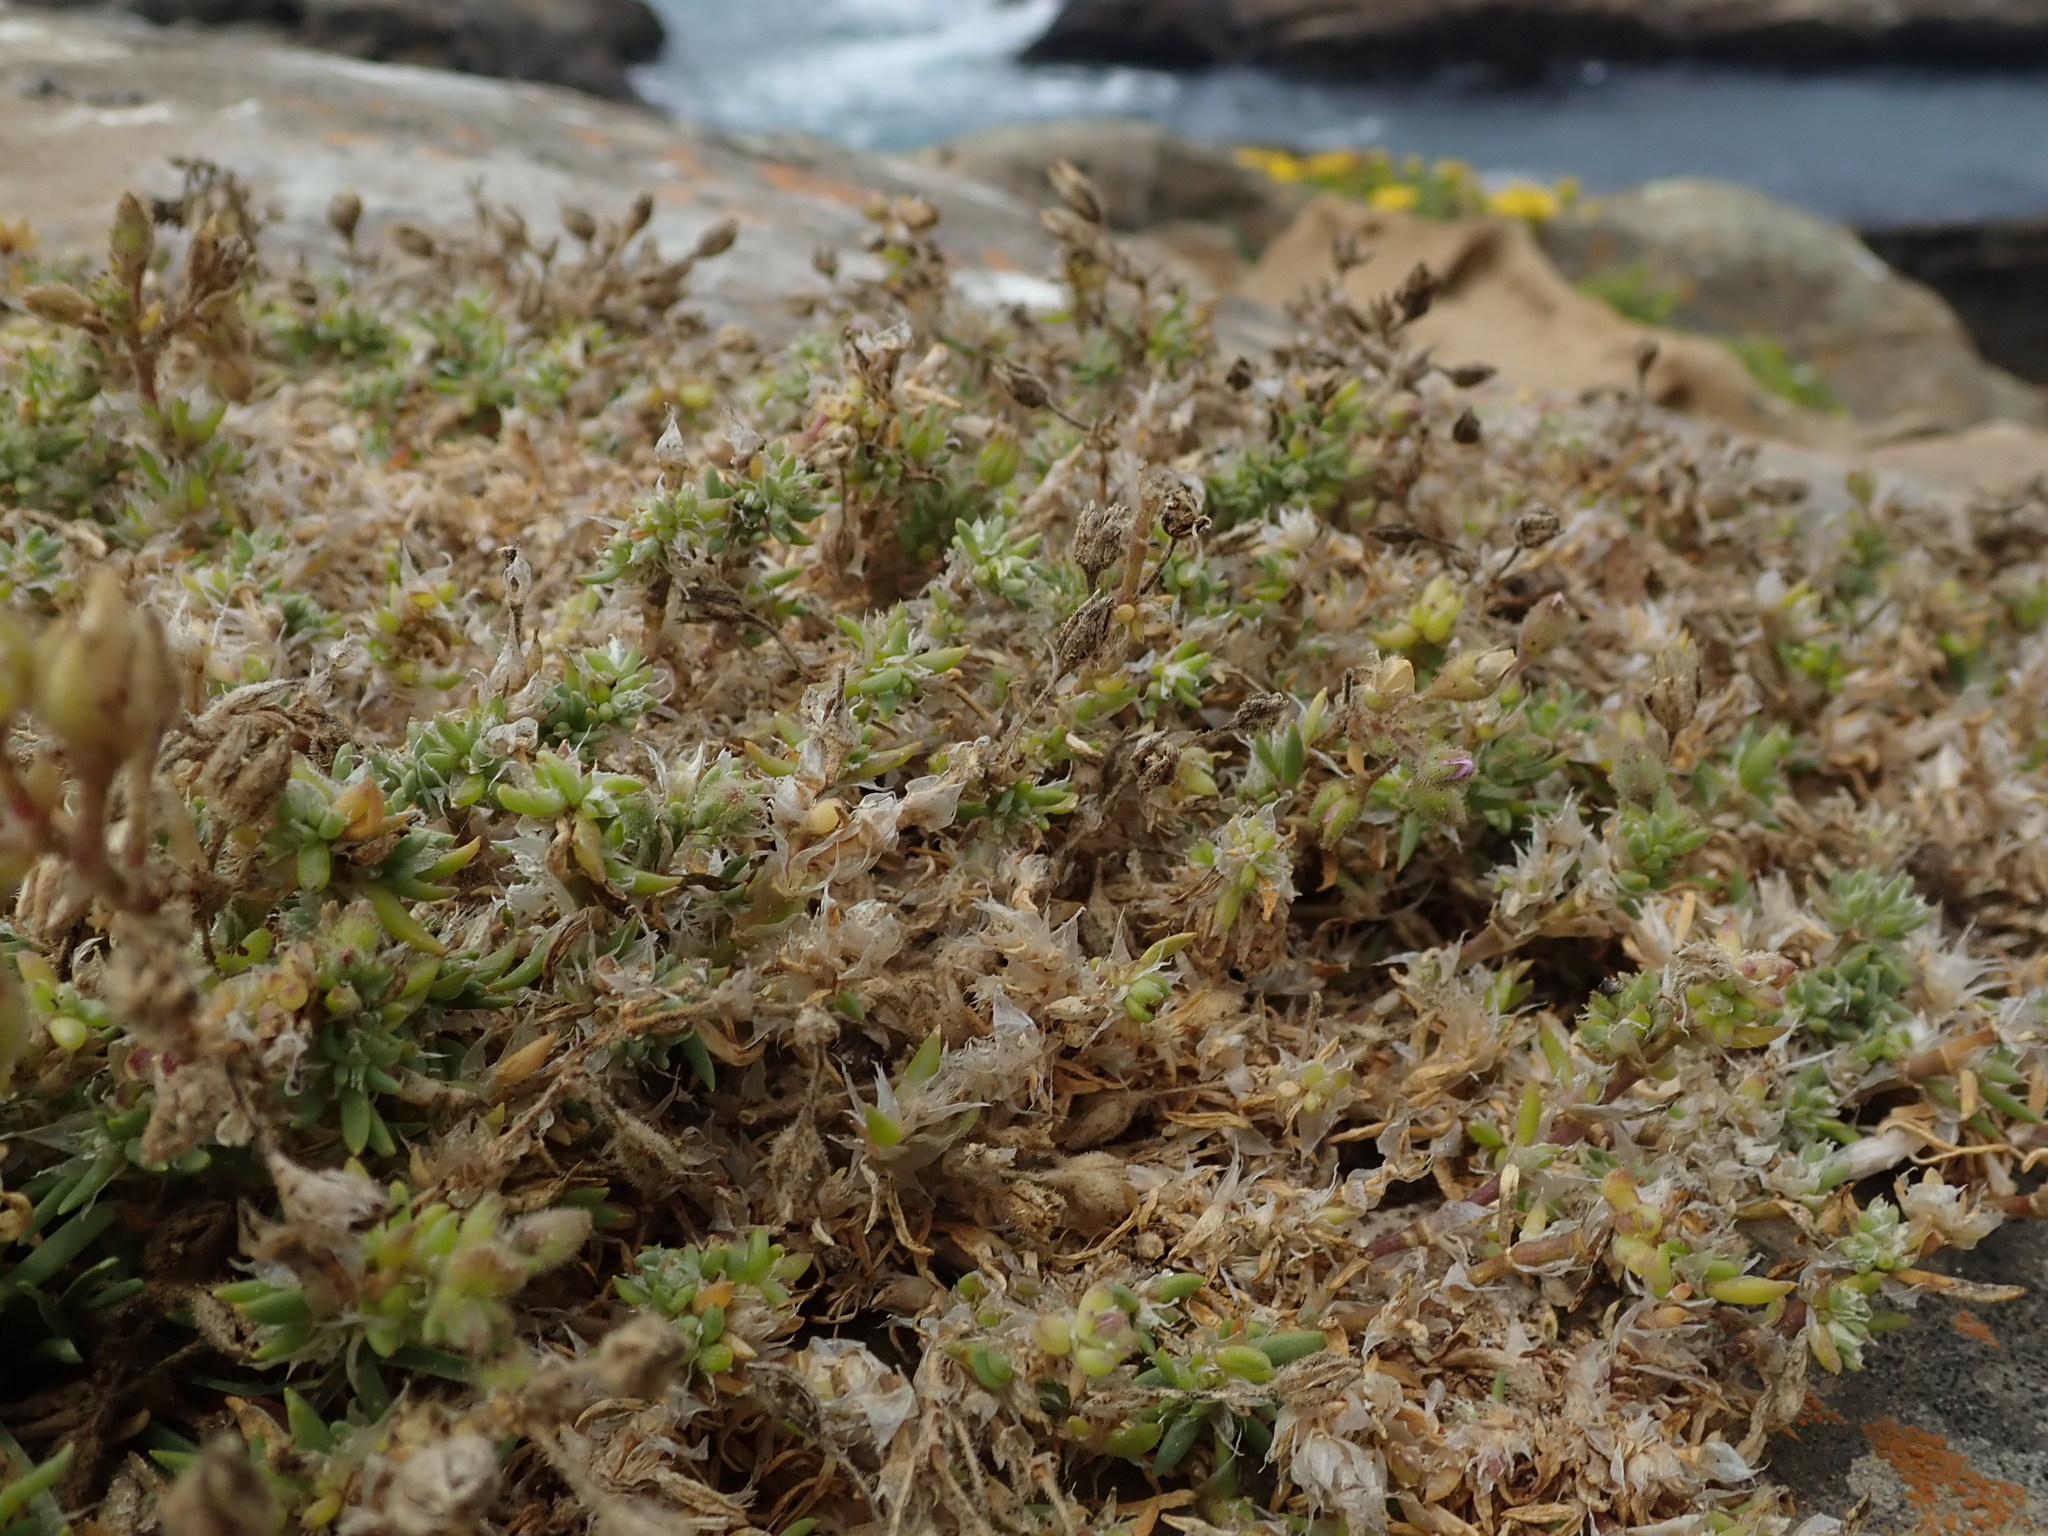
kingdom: Plantae
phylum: Tracheophyta
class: Magnoliopsida
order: Caryophyllales
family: Caryophyllaceae
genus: Spergularia
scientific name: Spergularia macrotheca
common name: Beach sand-spurrey
